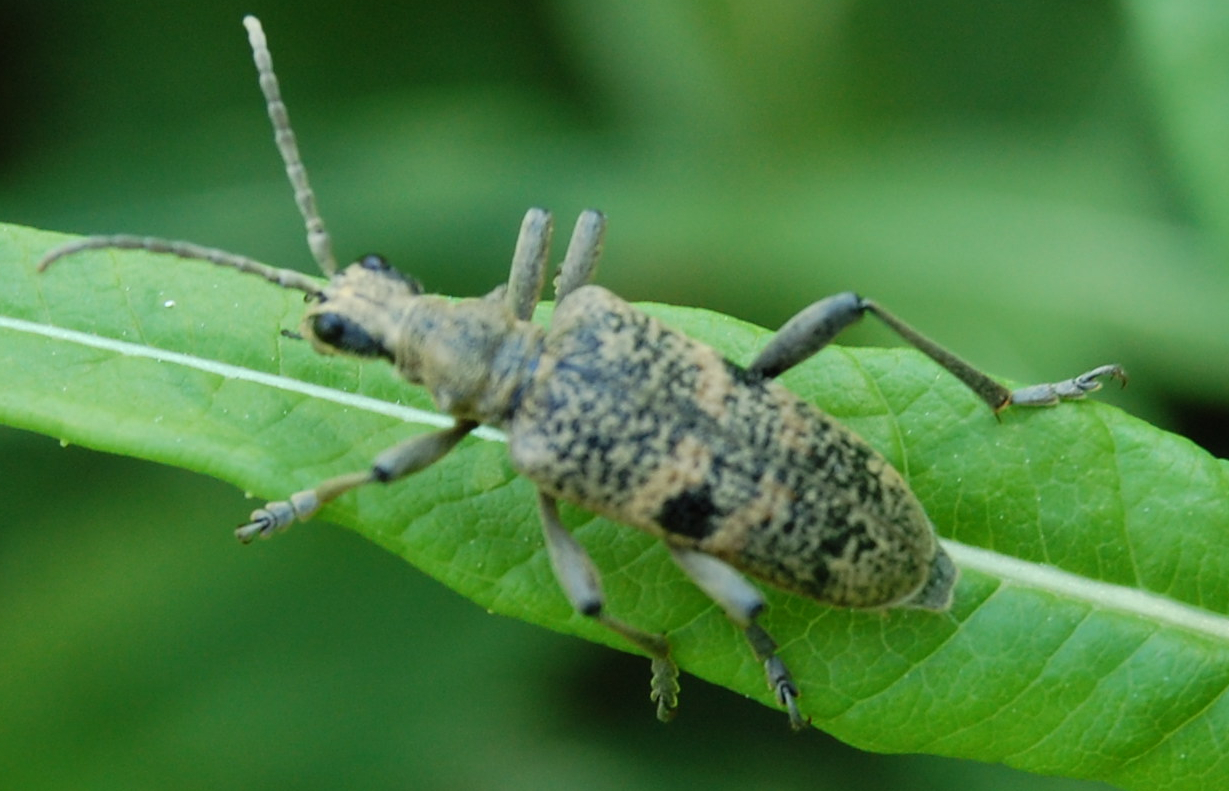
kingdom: Animalia
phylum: Arthropoda
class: Insecta
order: Coleoptera
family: Cerambycidae
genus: Rhagium
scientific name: Rhagium mordax
